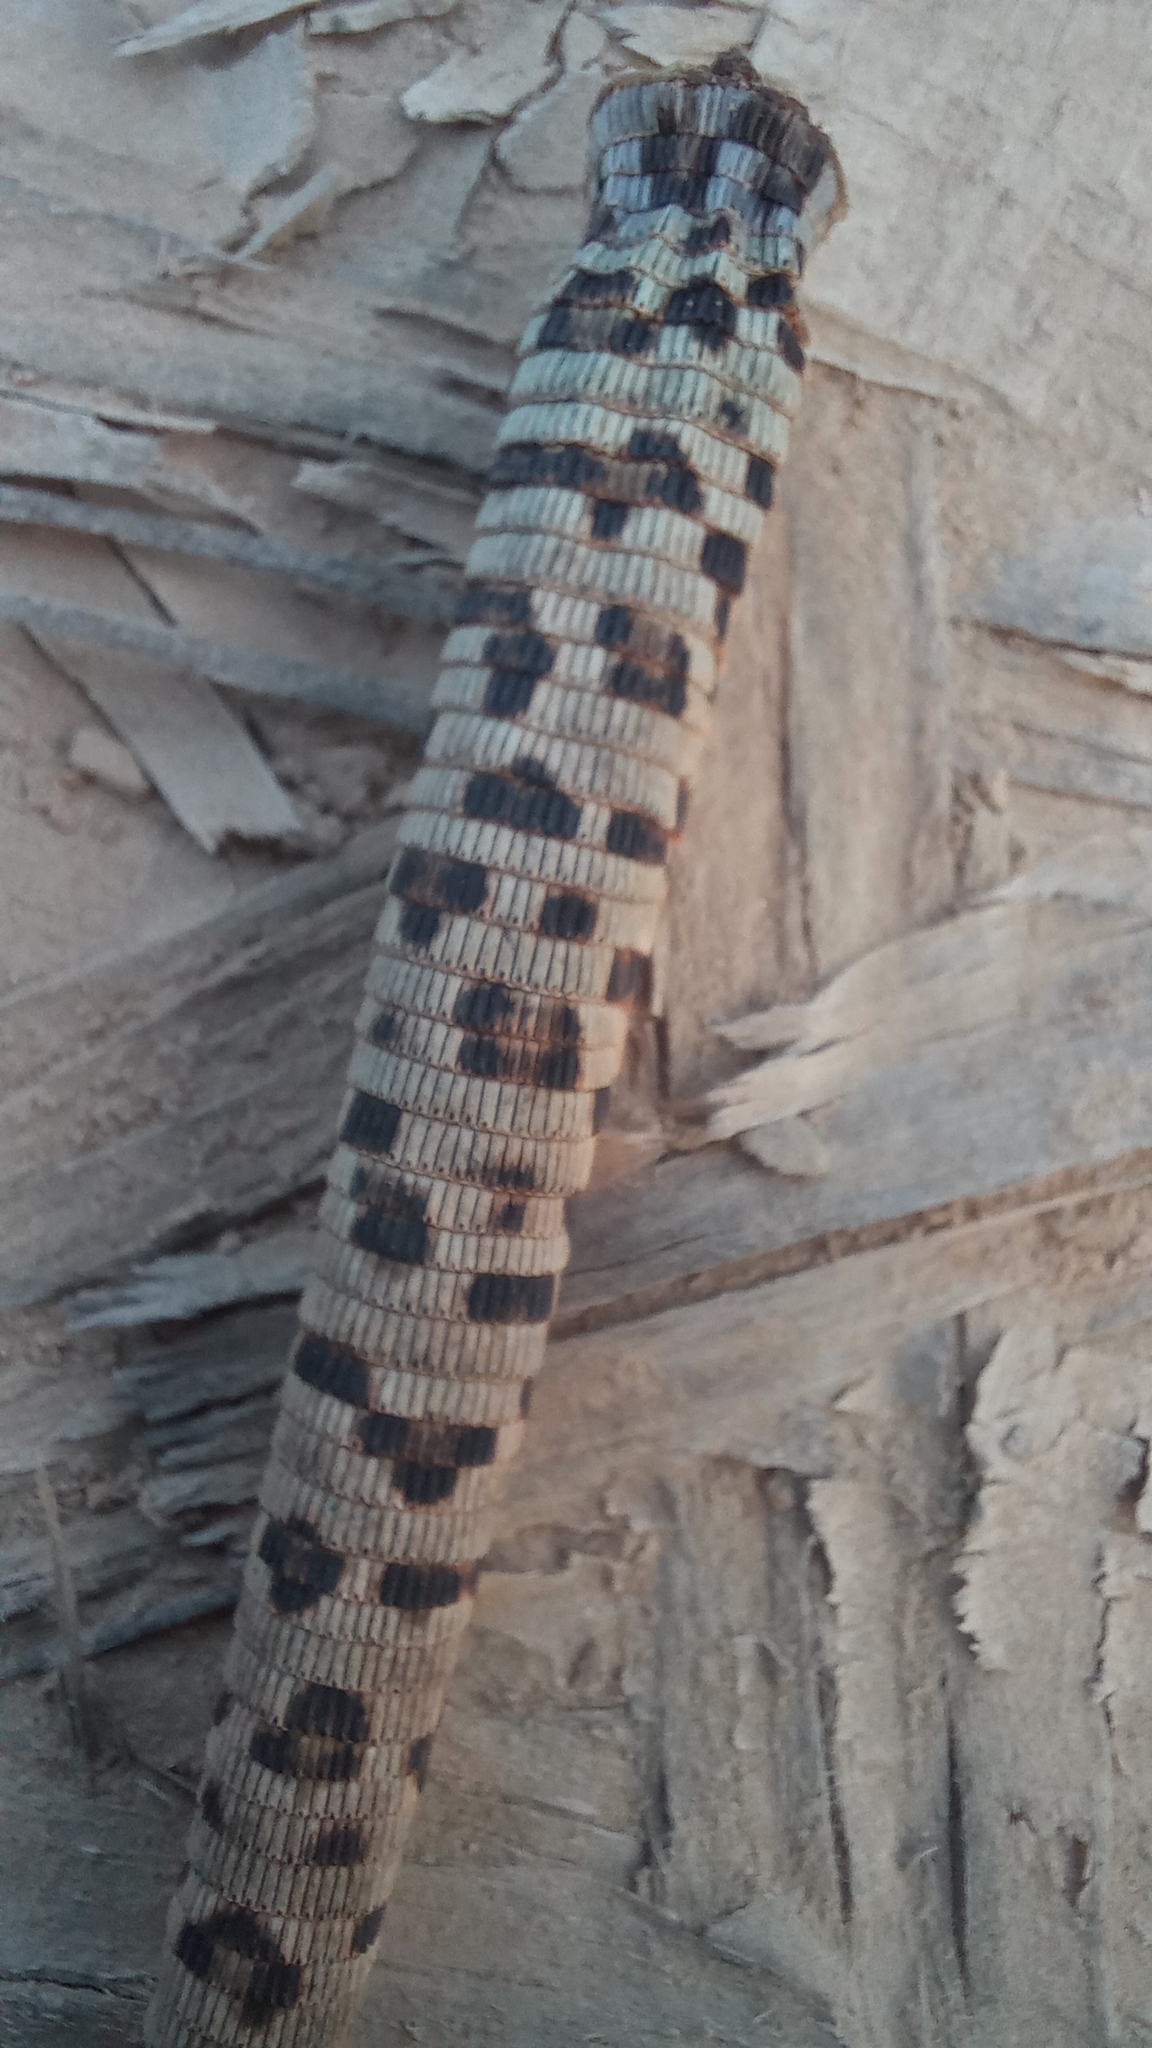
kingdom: Animalia
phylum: Chordata
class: Squamata
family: Teiidae
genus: Callopistes
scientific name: Callopistes maculatus
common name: Spotted false monitor
